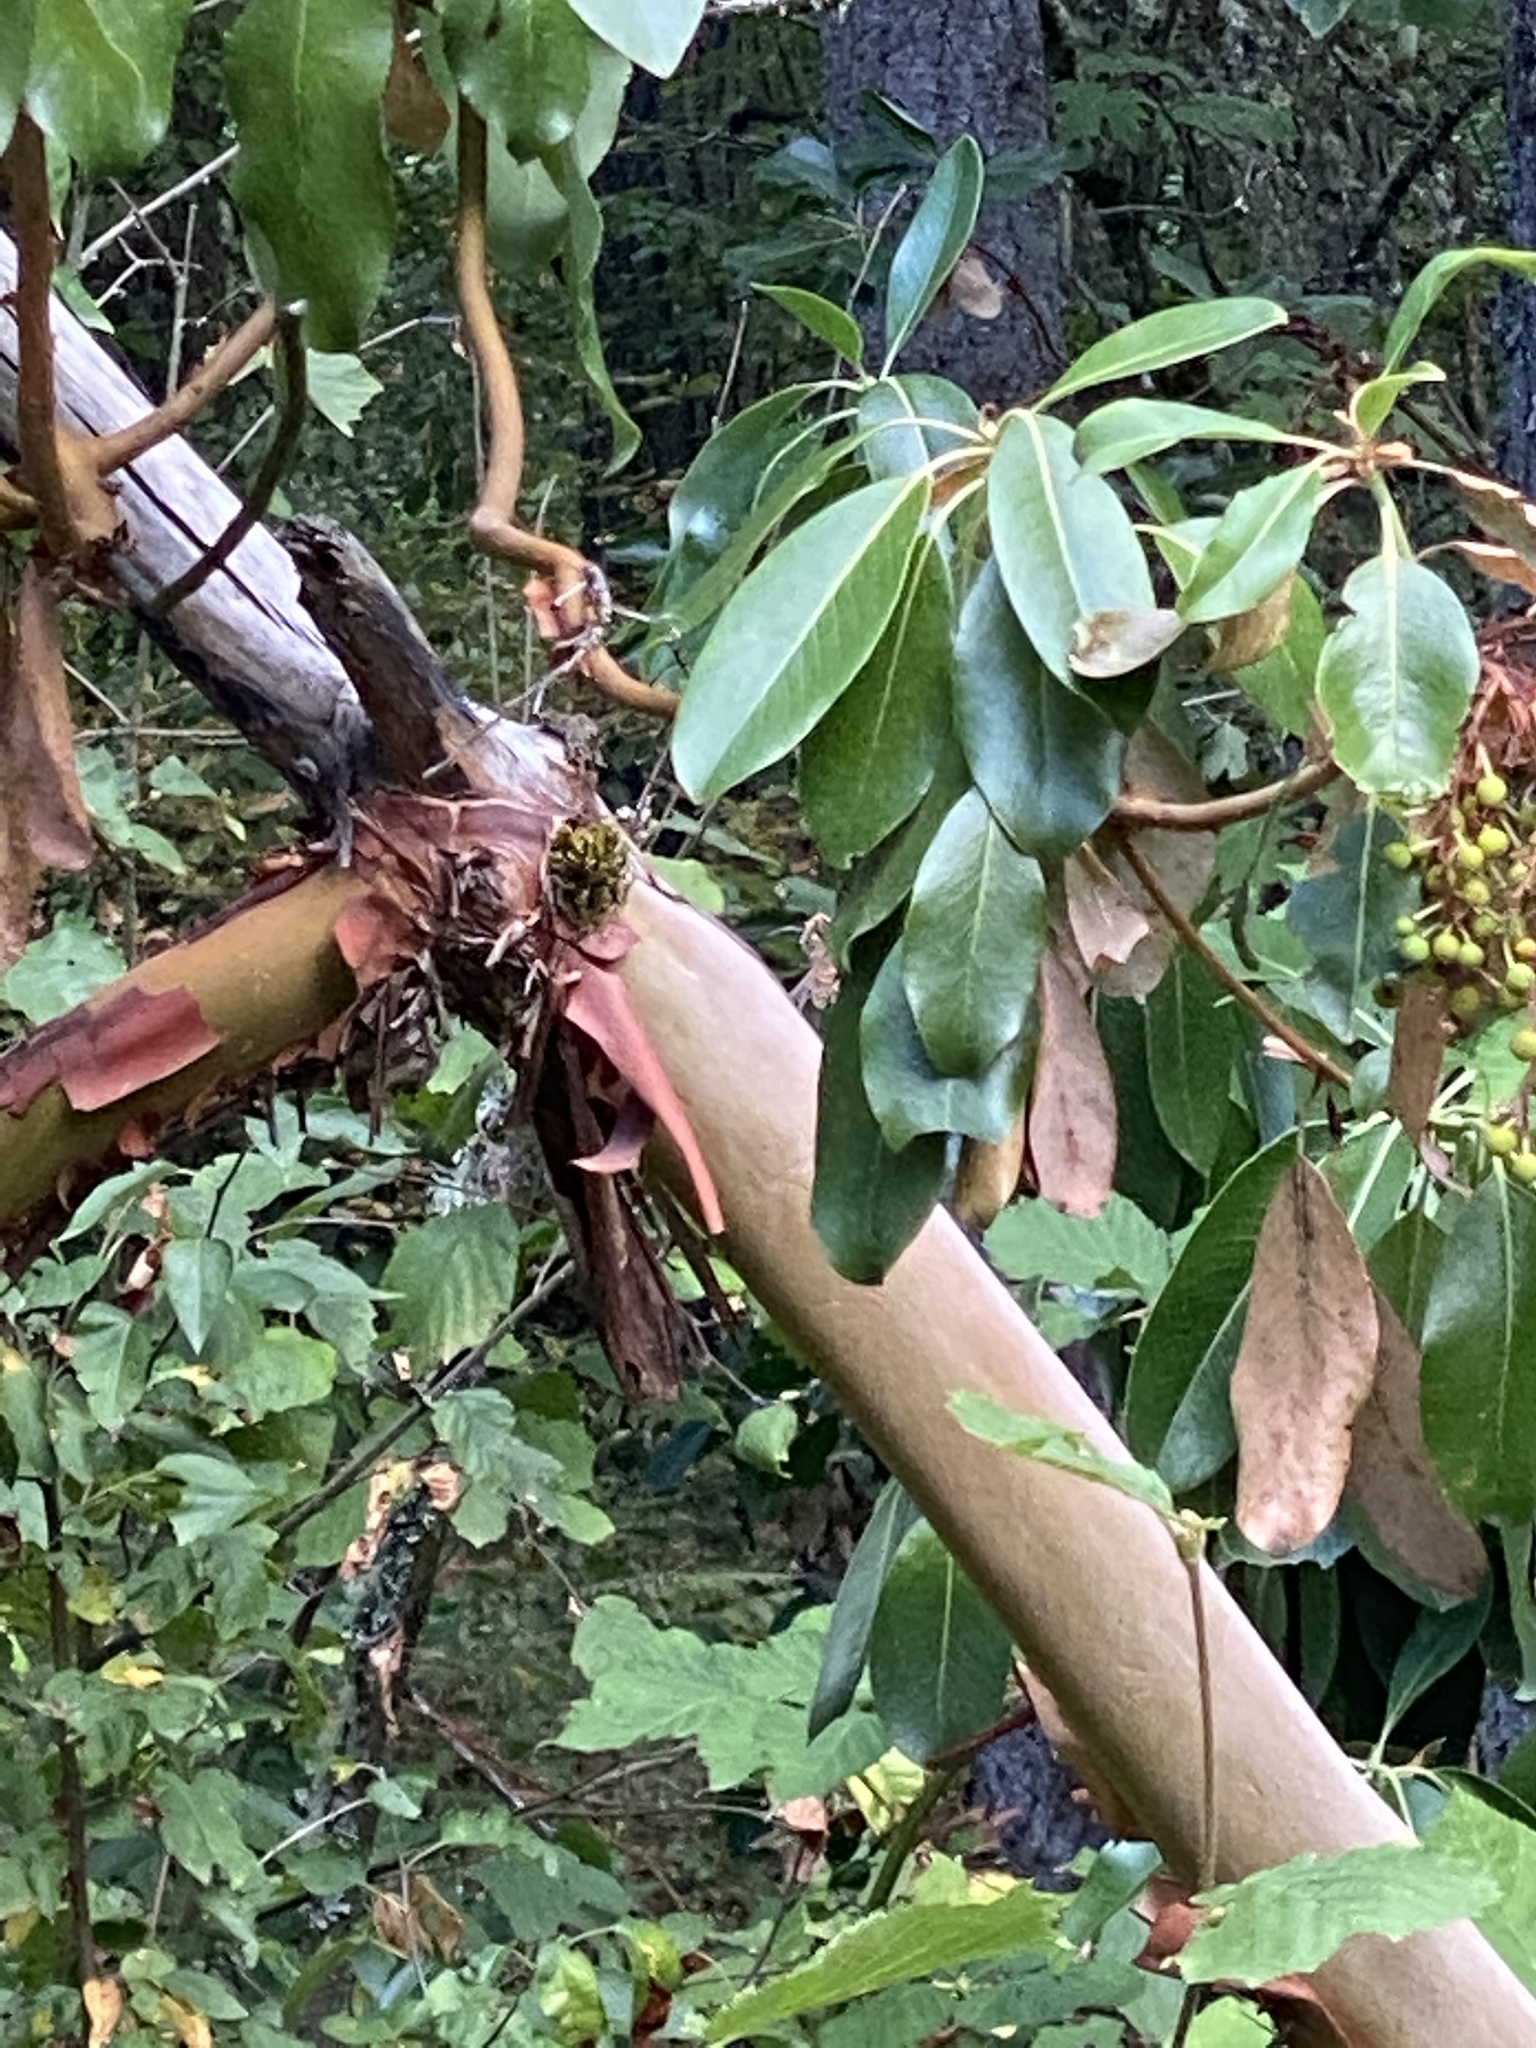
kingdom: Plantae
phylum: Tracheophyta
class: Magnoliopsida
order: Ericales
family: Ericaceae
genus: Arbutus
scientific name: Arbutus menziesii
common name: Pacific madrone
